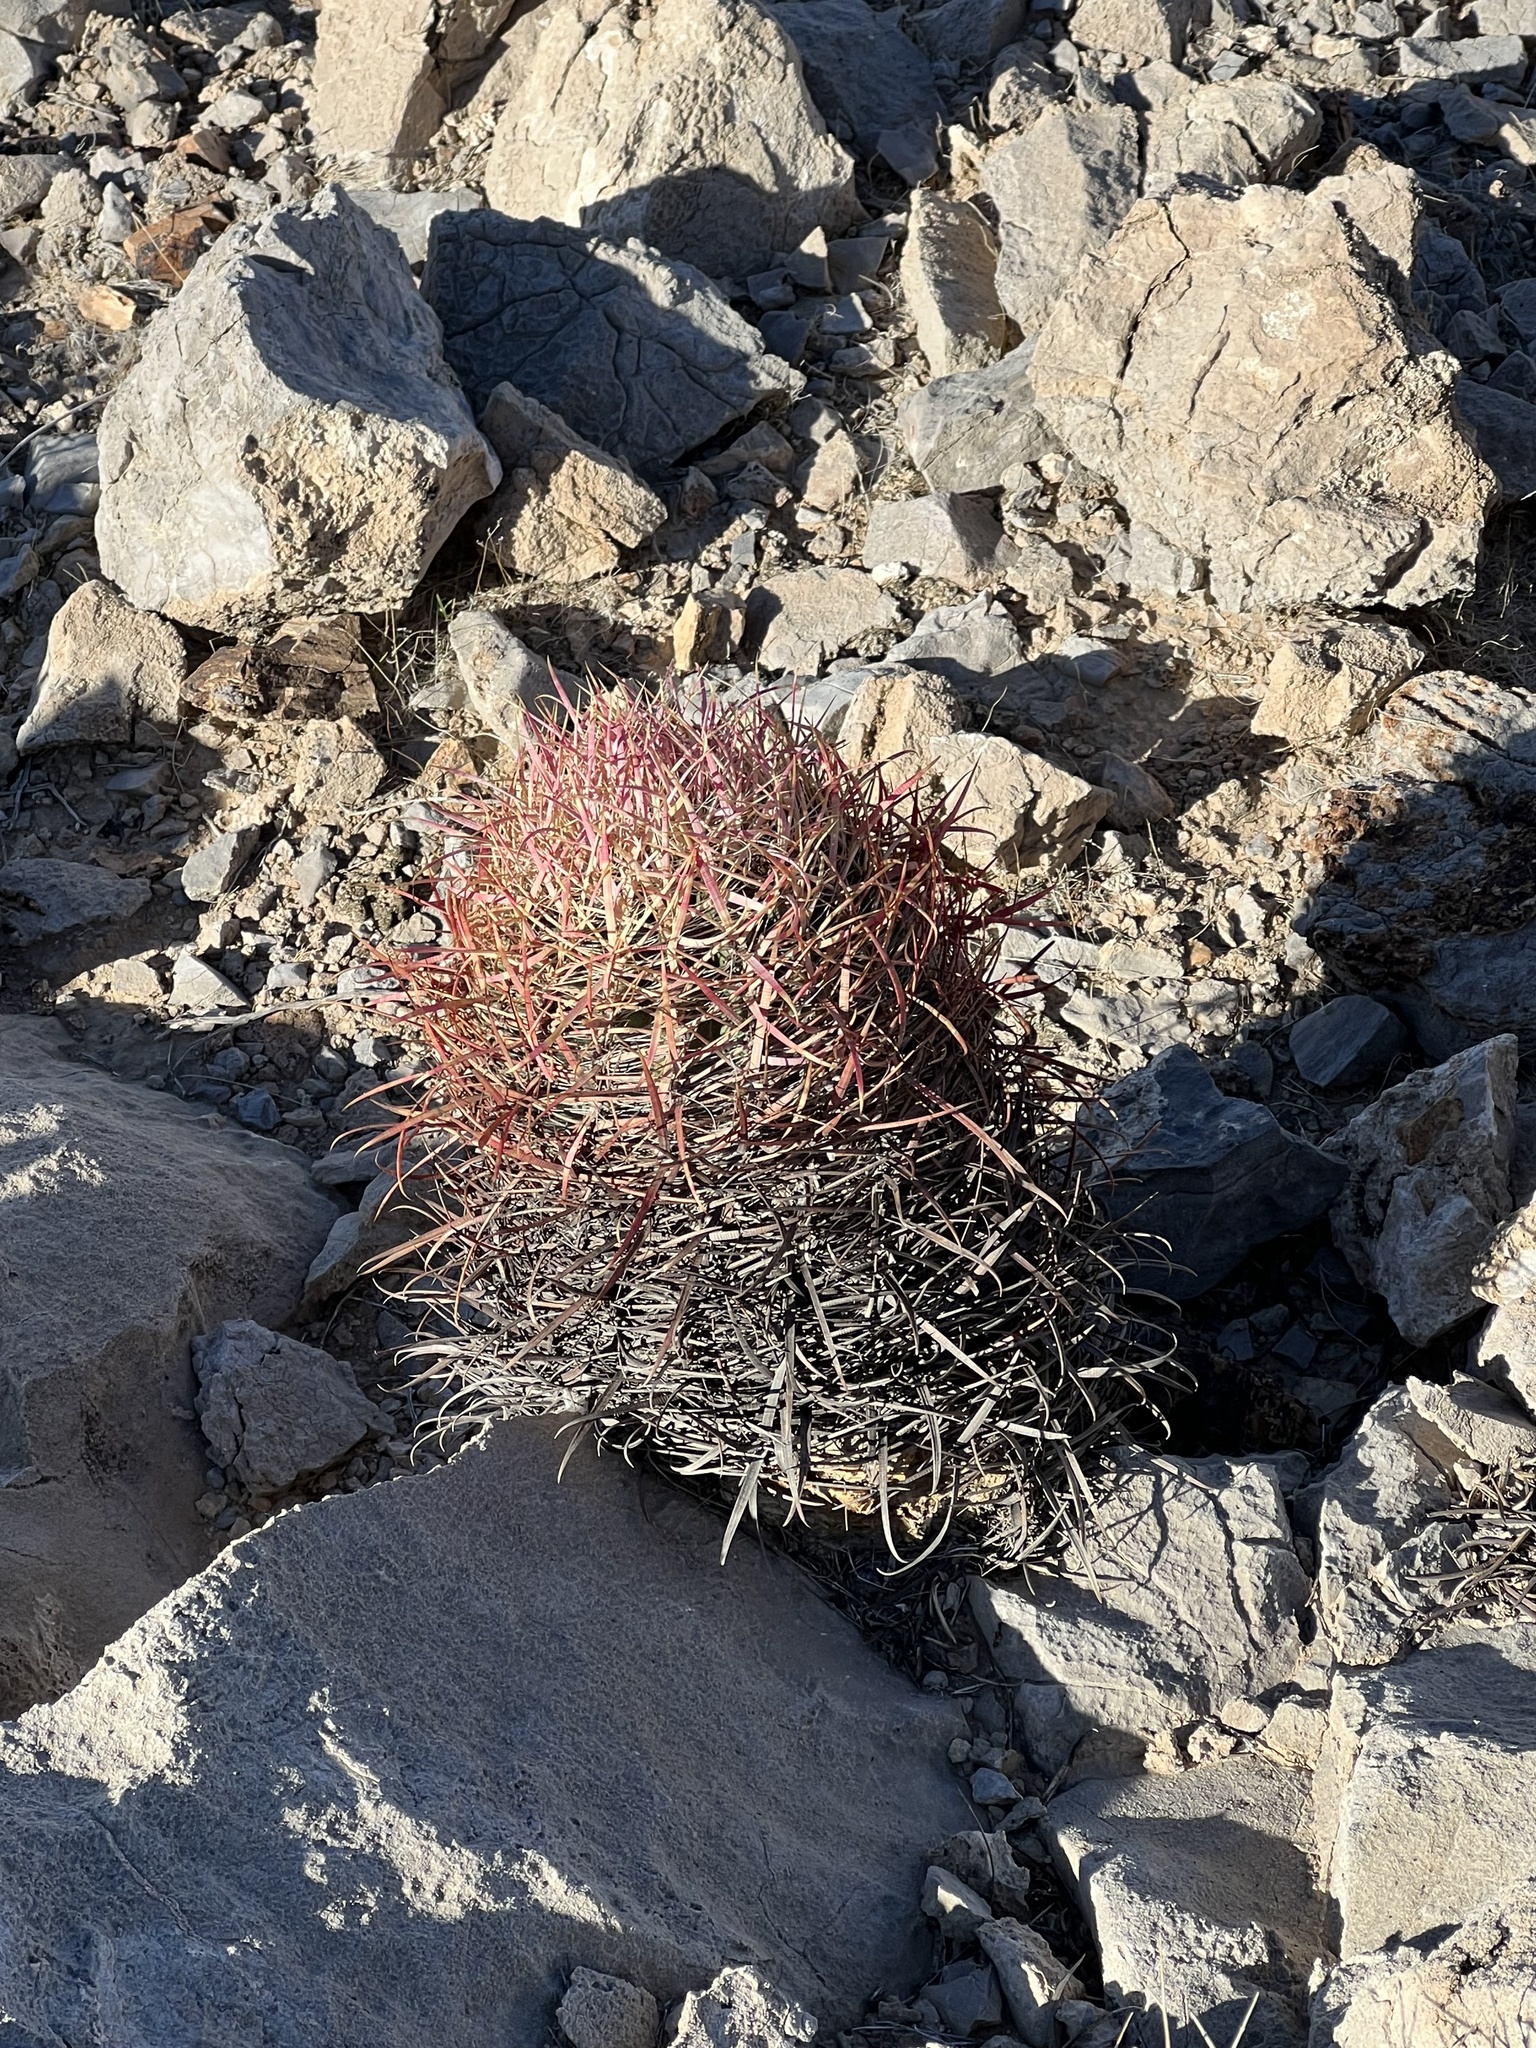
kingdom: Plantae
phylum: Tracheophyta
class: Magnoliopsida
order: Caryophyllales
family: Cactaceae
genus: Ferocactus
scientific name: Ferocactus cylindraceus
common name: California barrel cactus
